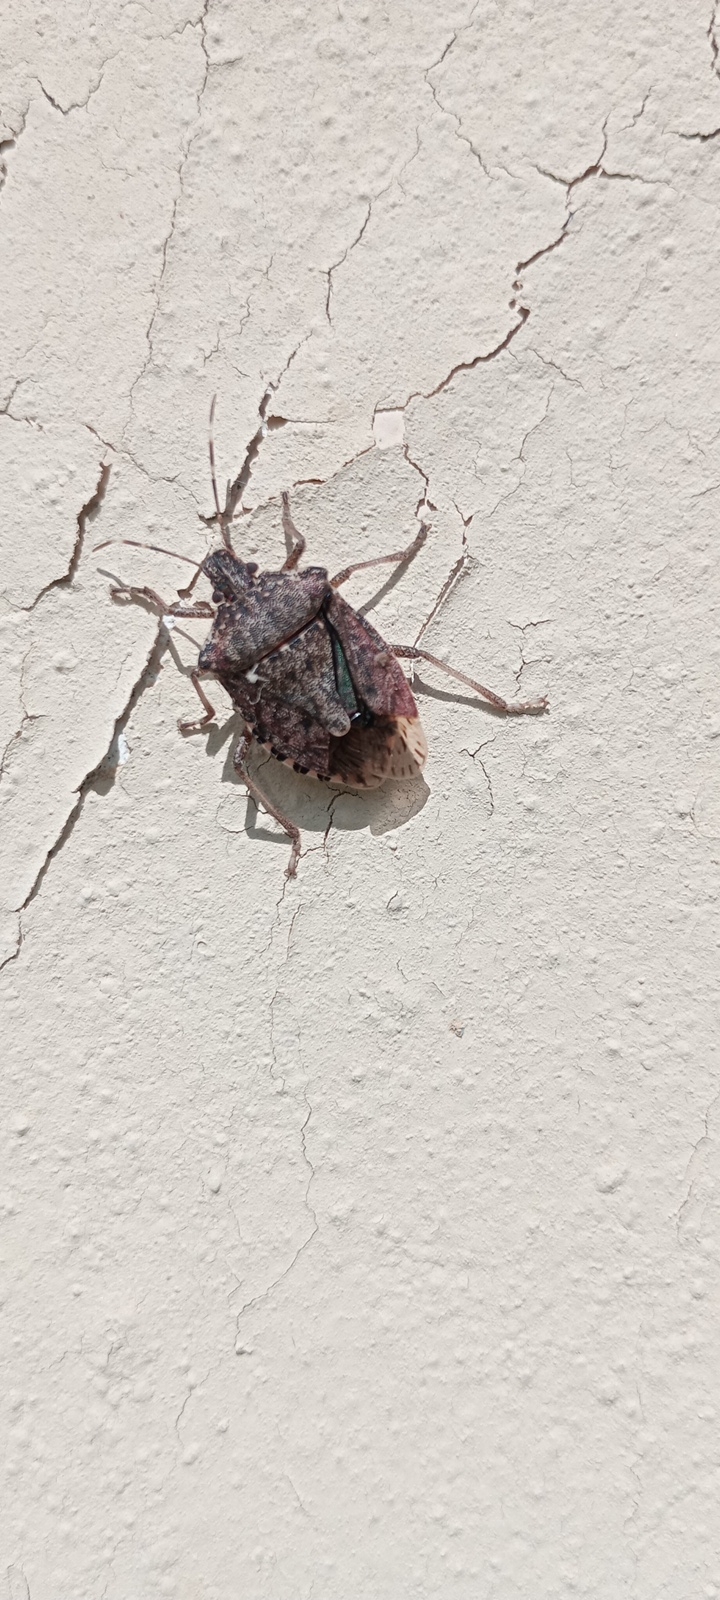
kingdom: Animalia
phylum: Arthropoda
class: Insecta
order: Hemiptera
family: Pentatomidae
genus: Halyomorpha
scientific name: Halyomorpha halys
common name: Brown marmorated stink bug
